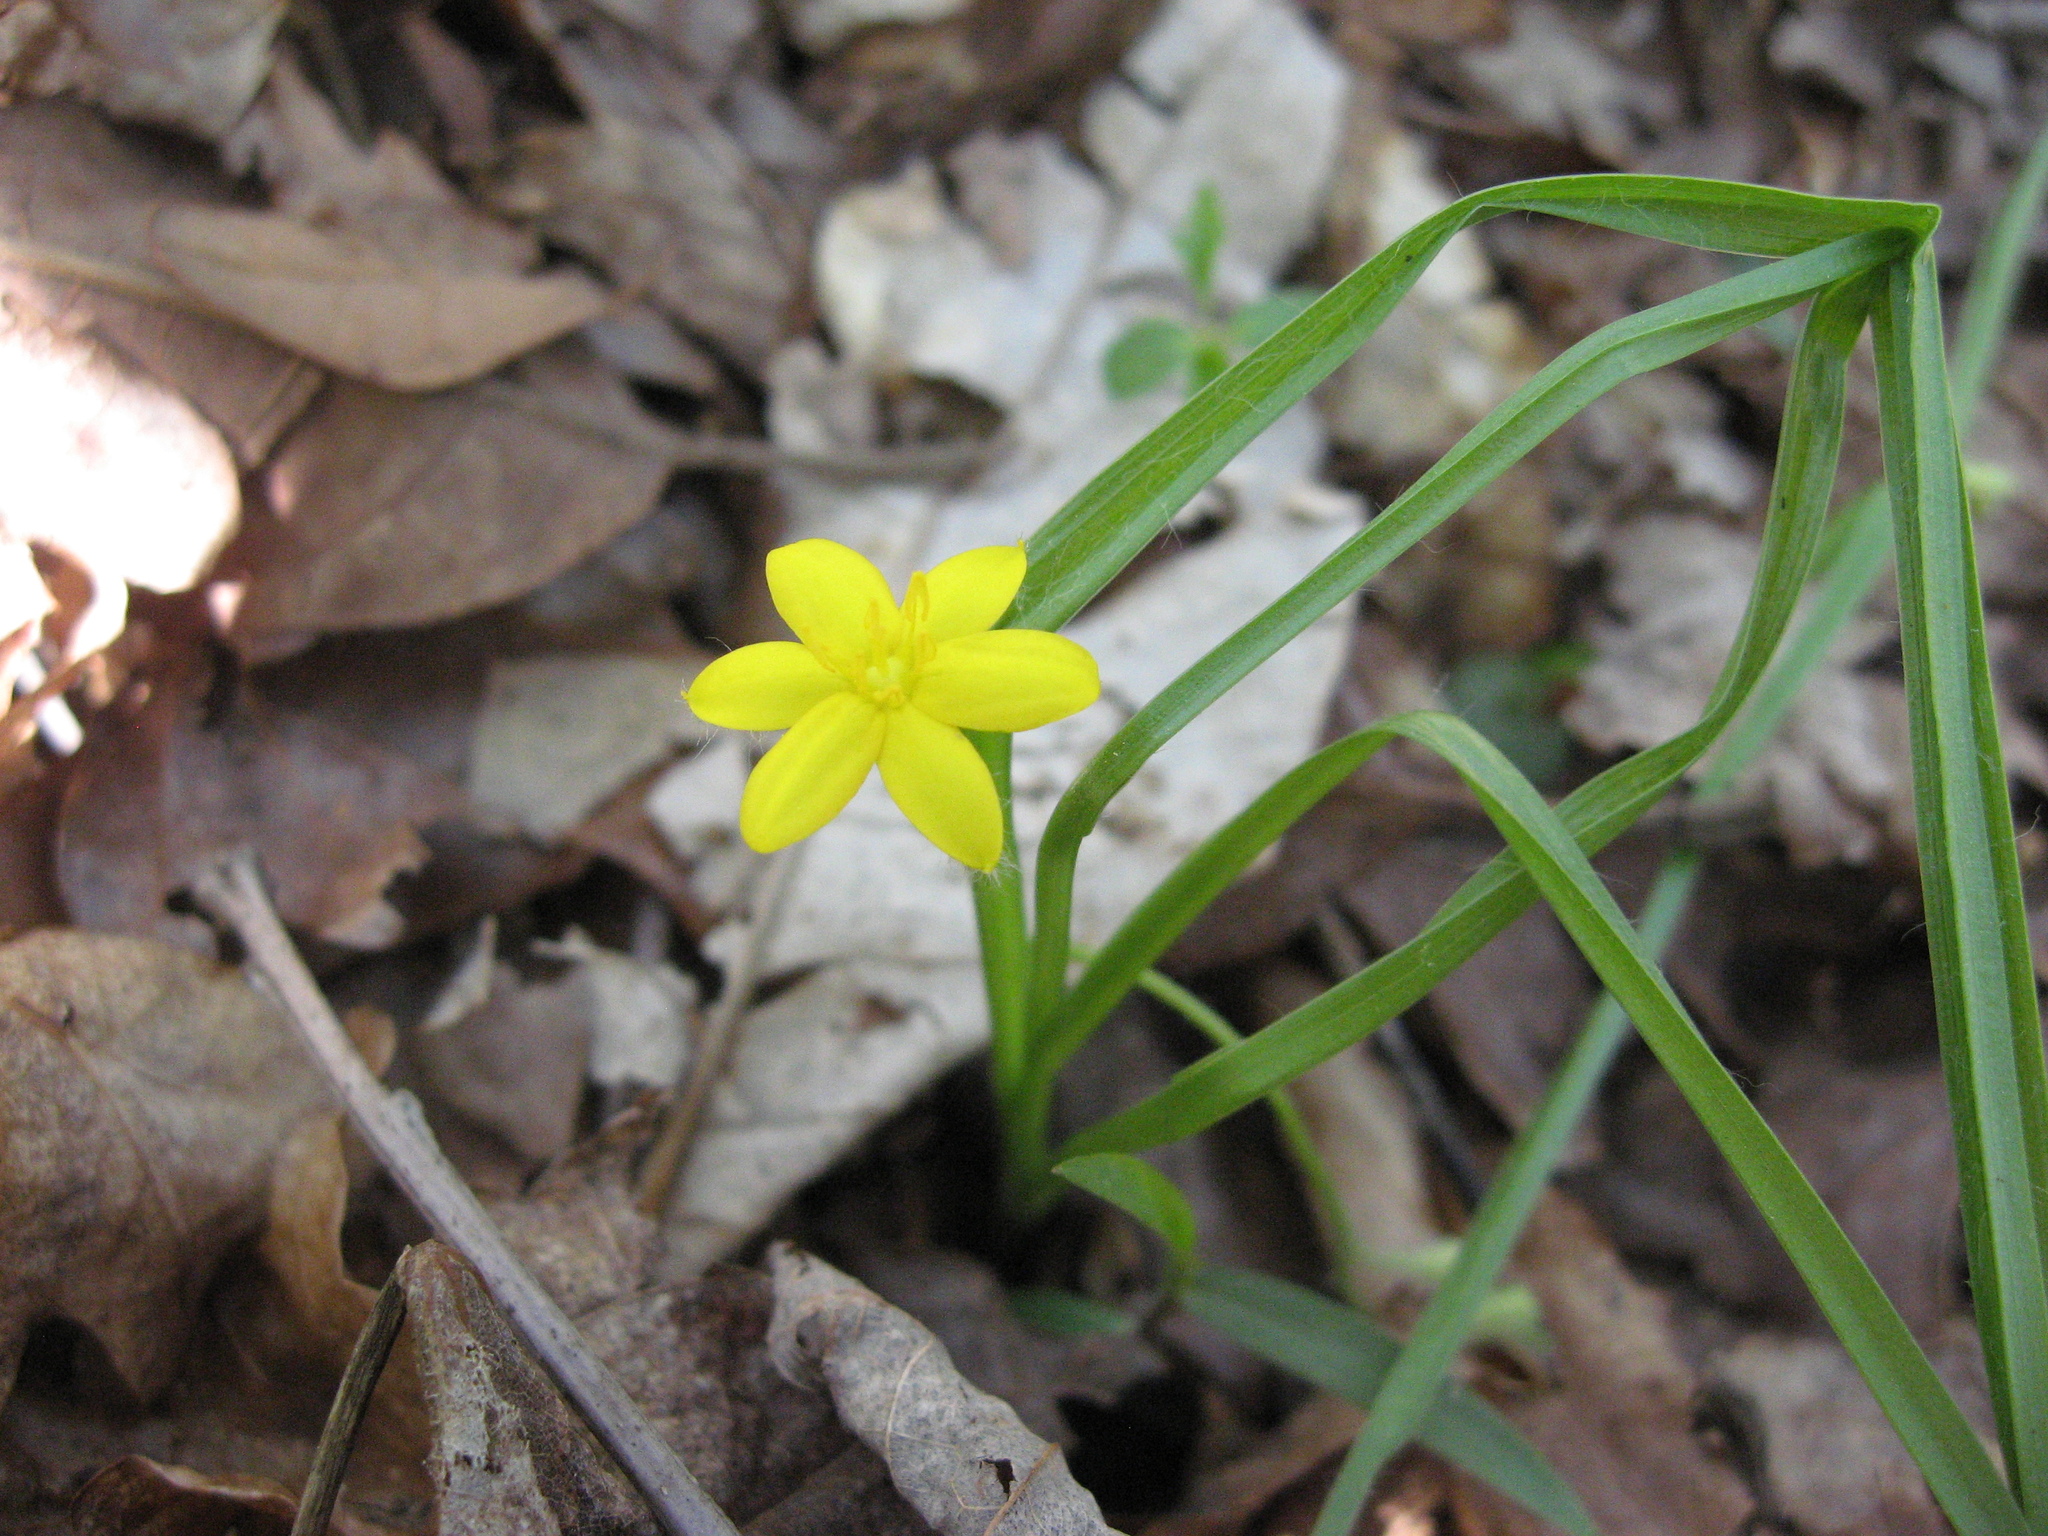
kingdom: Plantae
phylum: Tracheophyta
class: Liliopsida
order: Asparagales
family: Hypoxidaceae
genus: Hypoxis
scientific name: Hypoxis hirsuta
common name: Common goldstar
